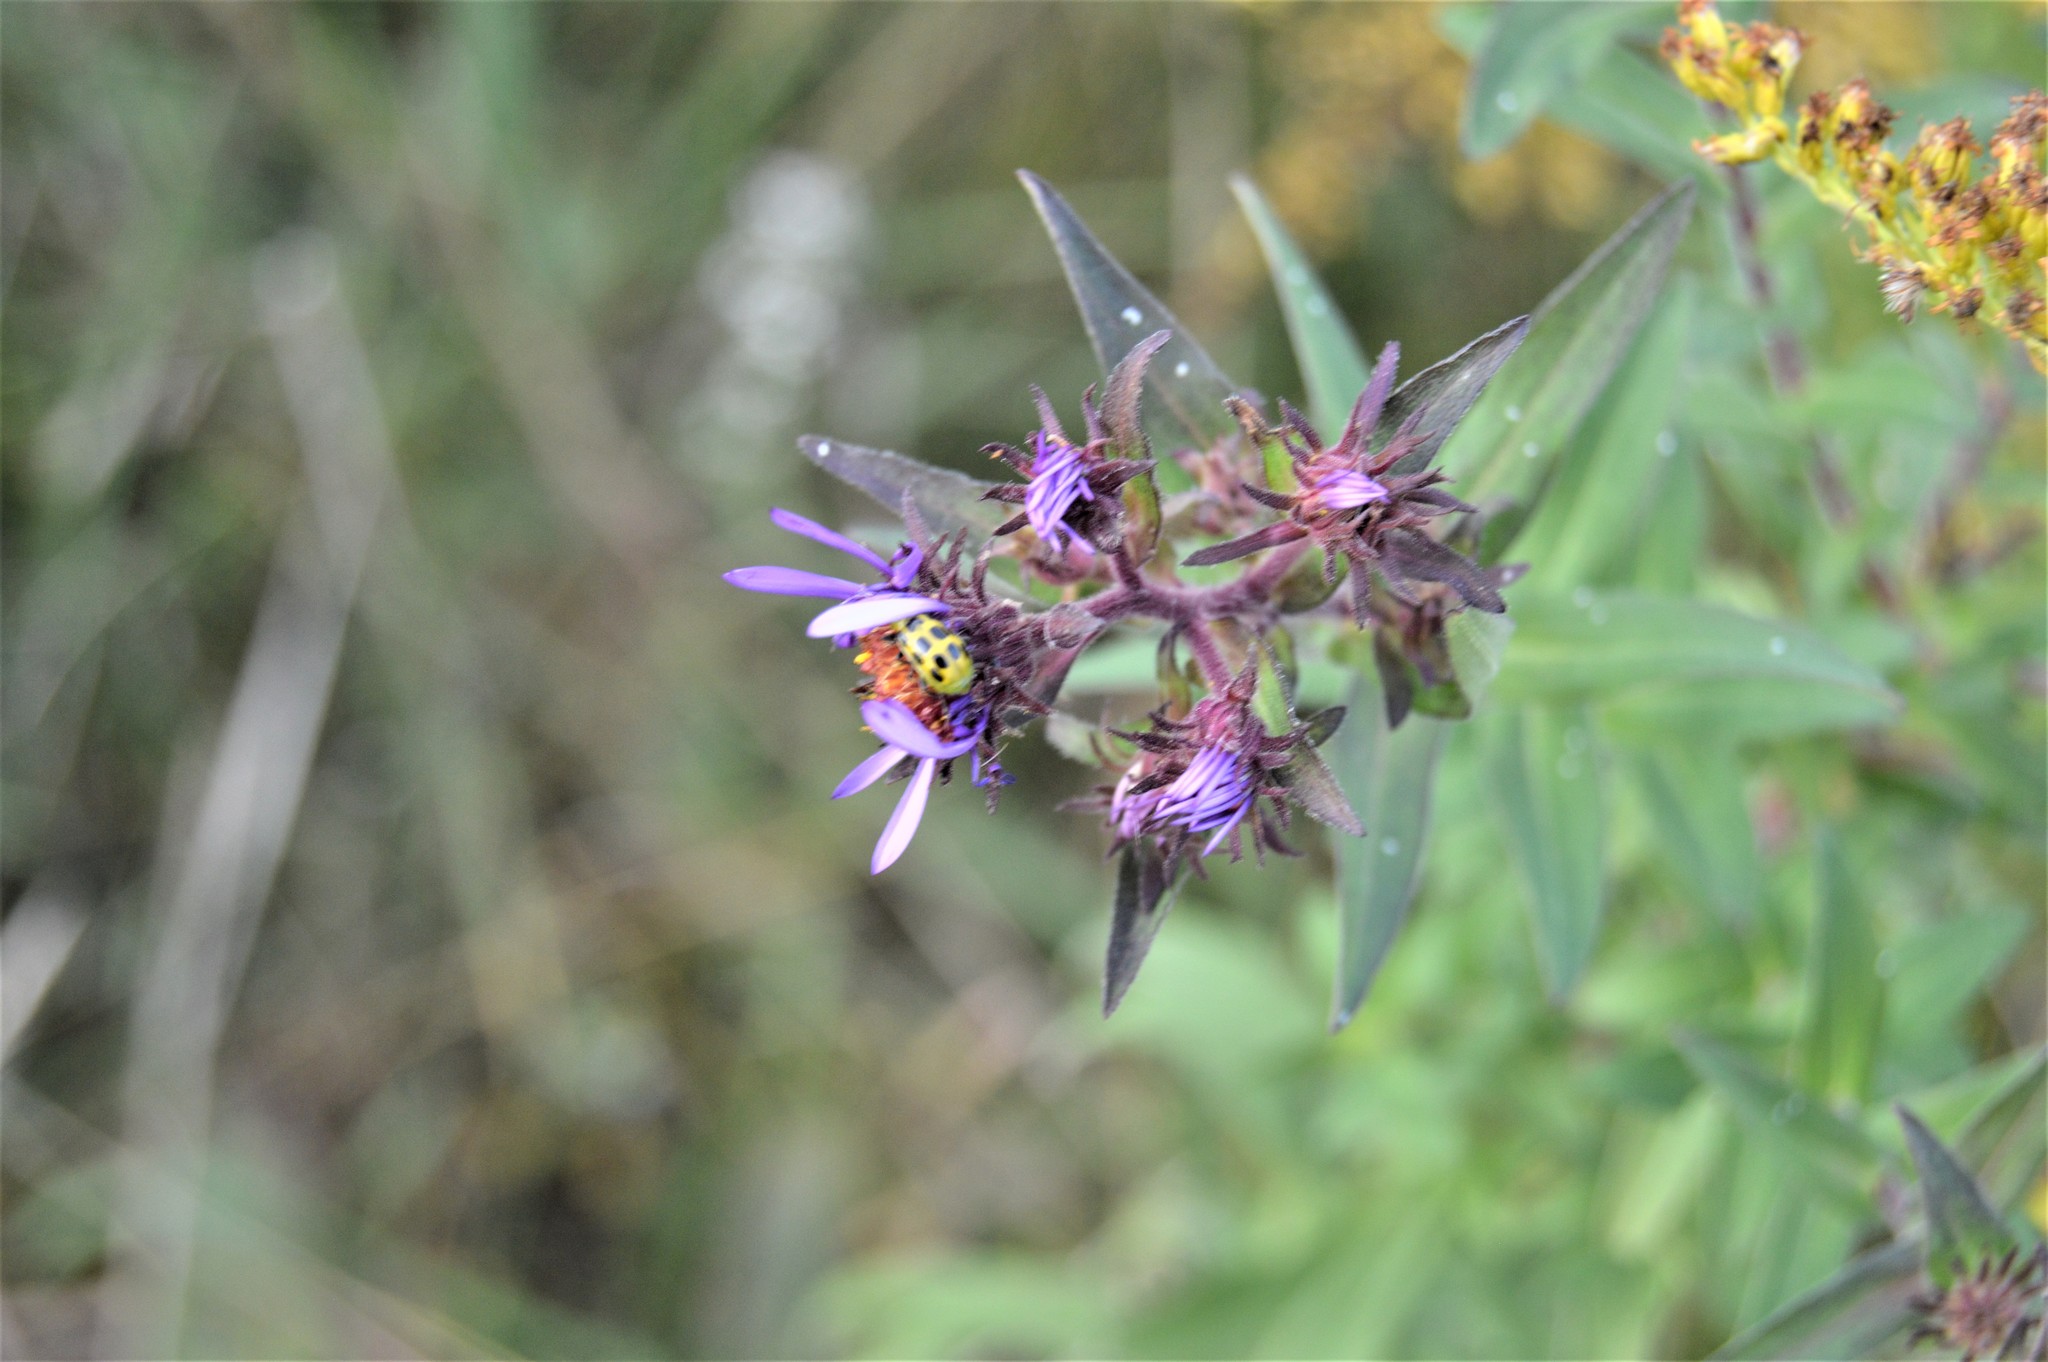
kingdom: Animalia
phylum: Arthropoda
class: Insecta
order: Coleoptera
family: Chrysomelidae
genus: Diabrotica
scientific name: Diabrotica undecimpunctata
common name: Spotted cucumber beetle
